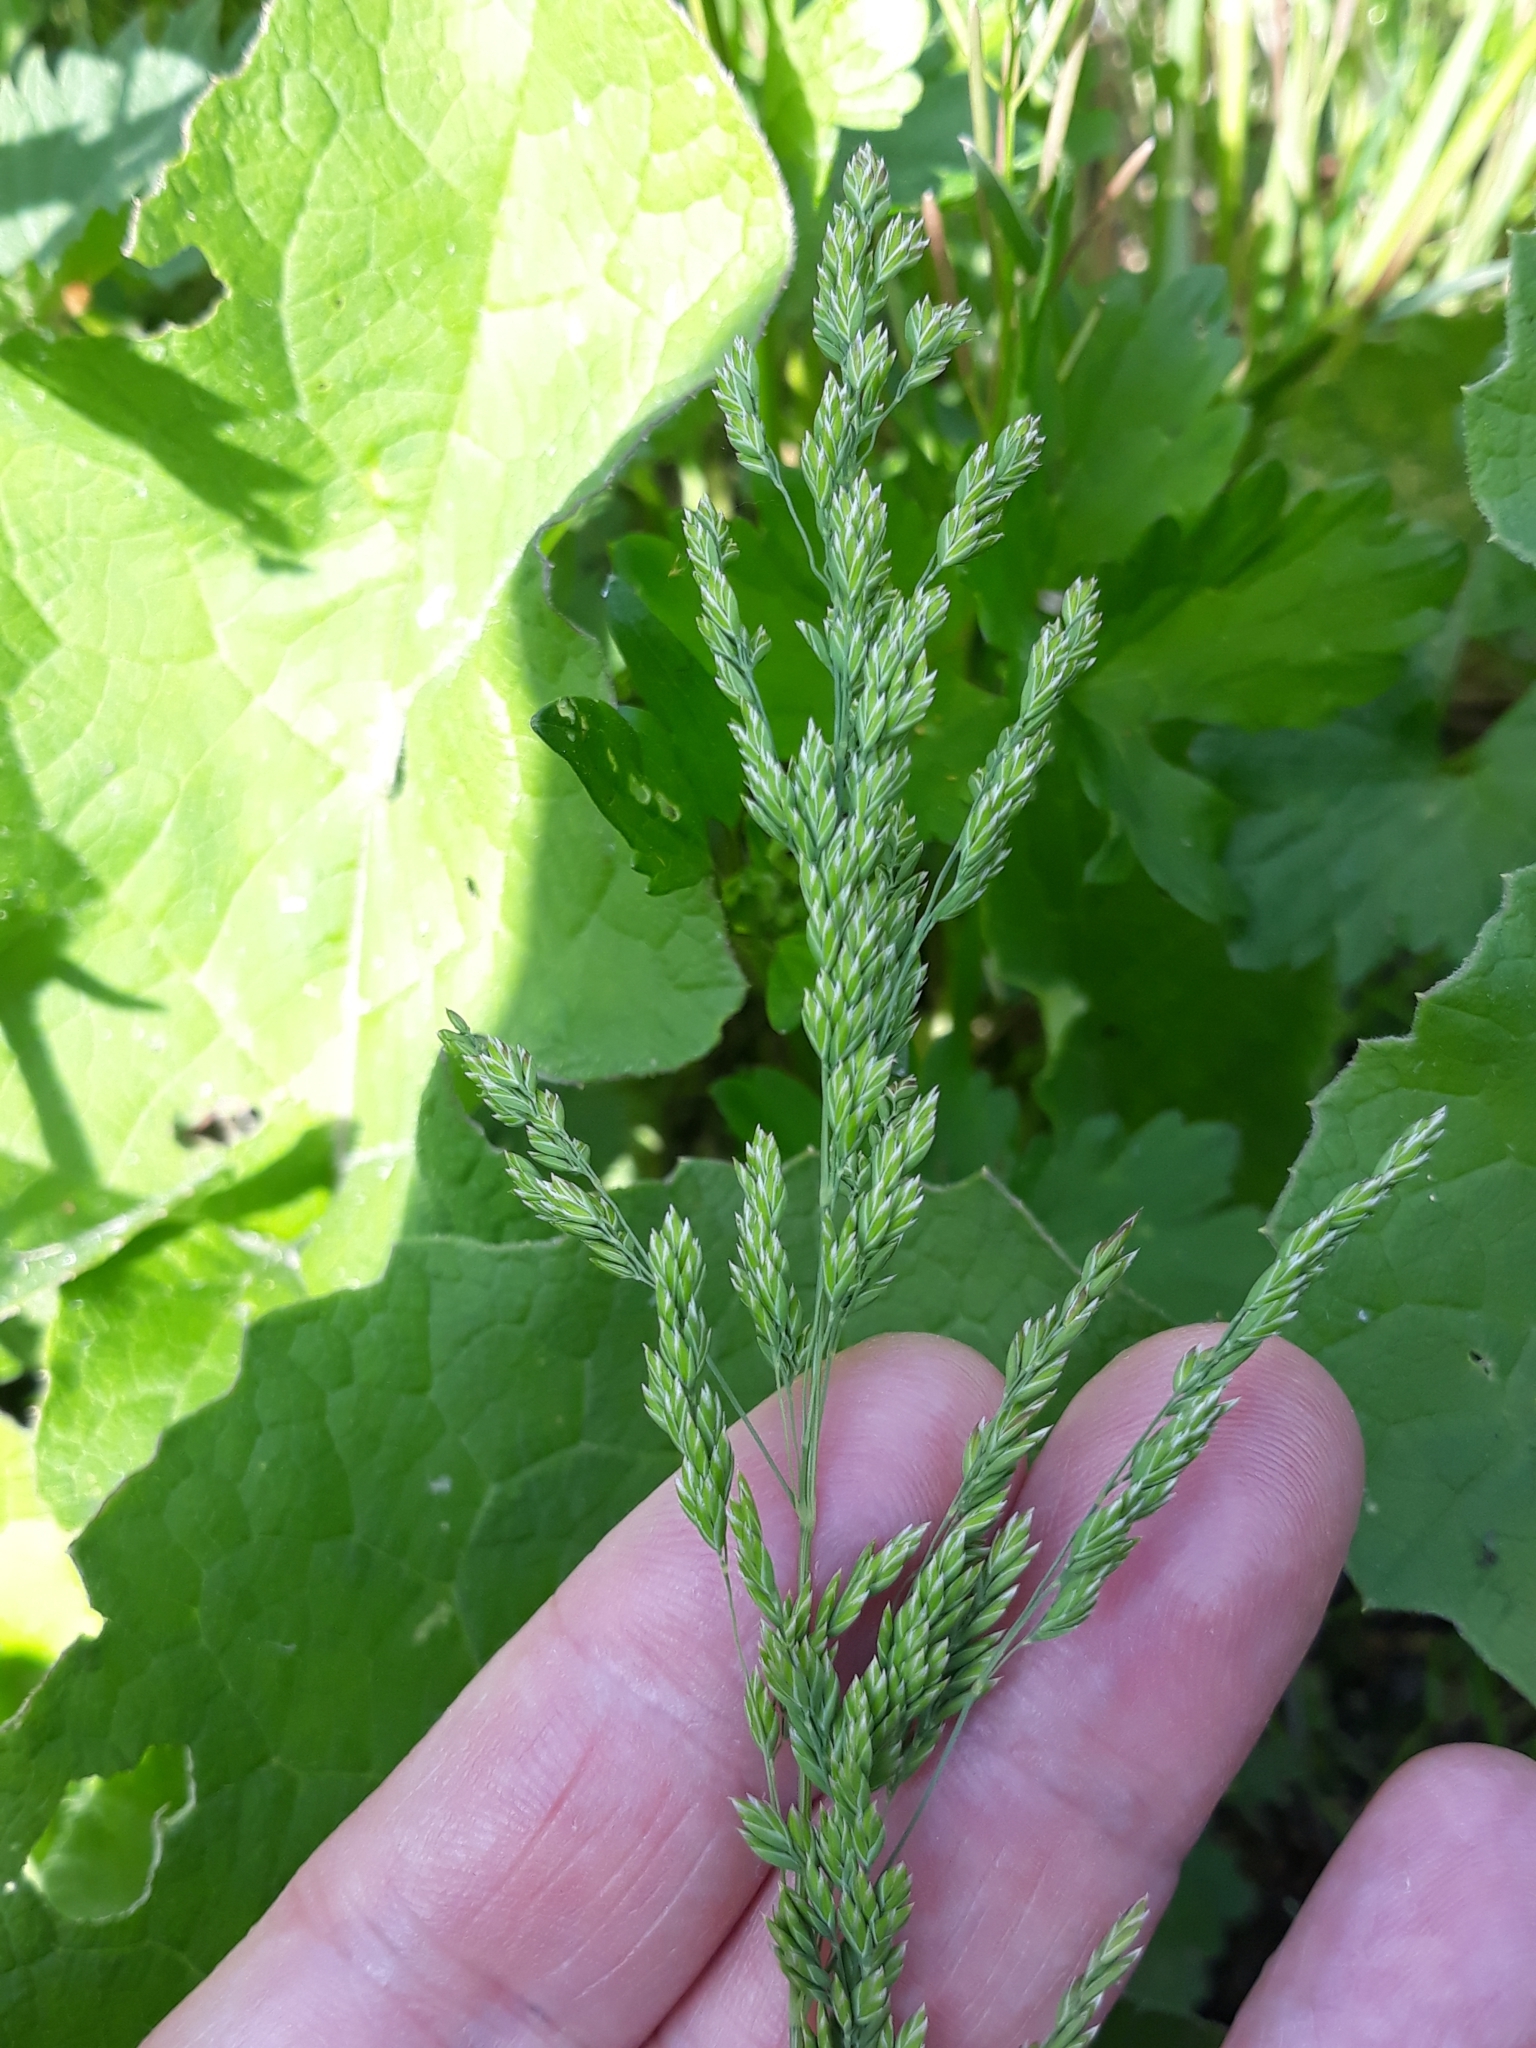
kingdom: Plantae
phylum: Tracheophyta
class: Liliopsida
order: Poales
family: Poaceae
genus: Poa
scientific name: Poa trivialis
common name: Rough bluegrass
